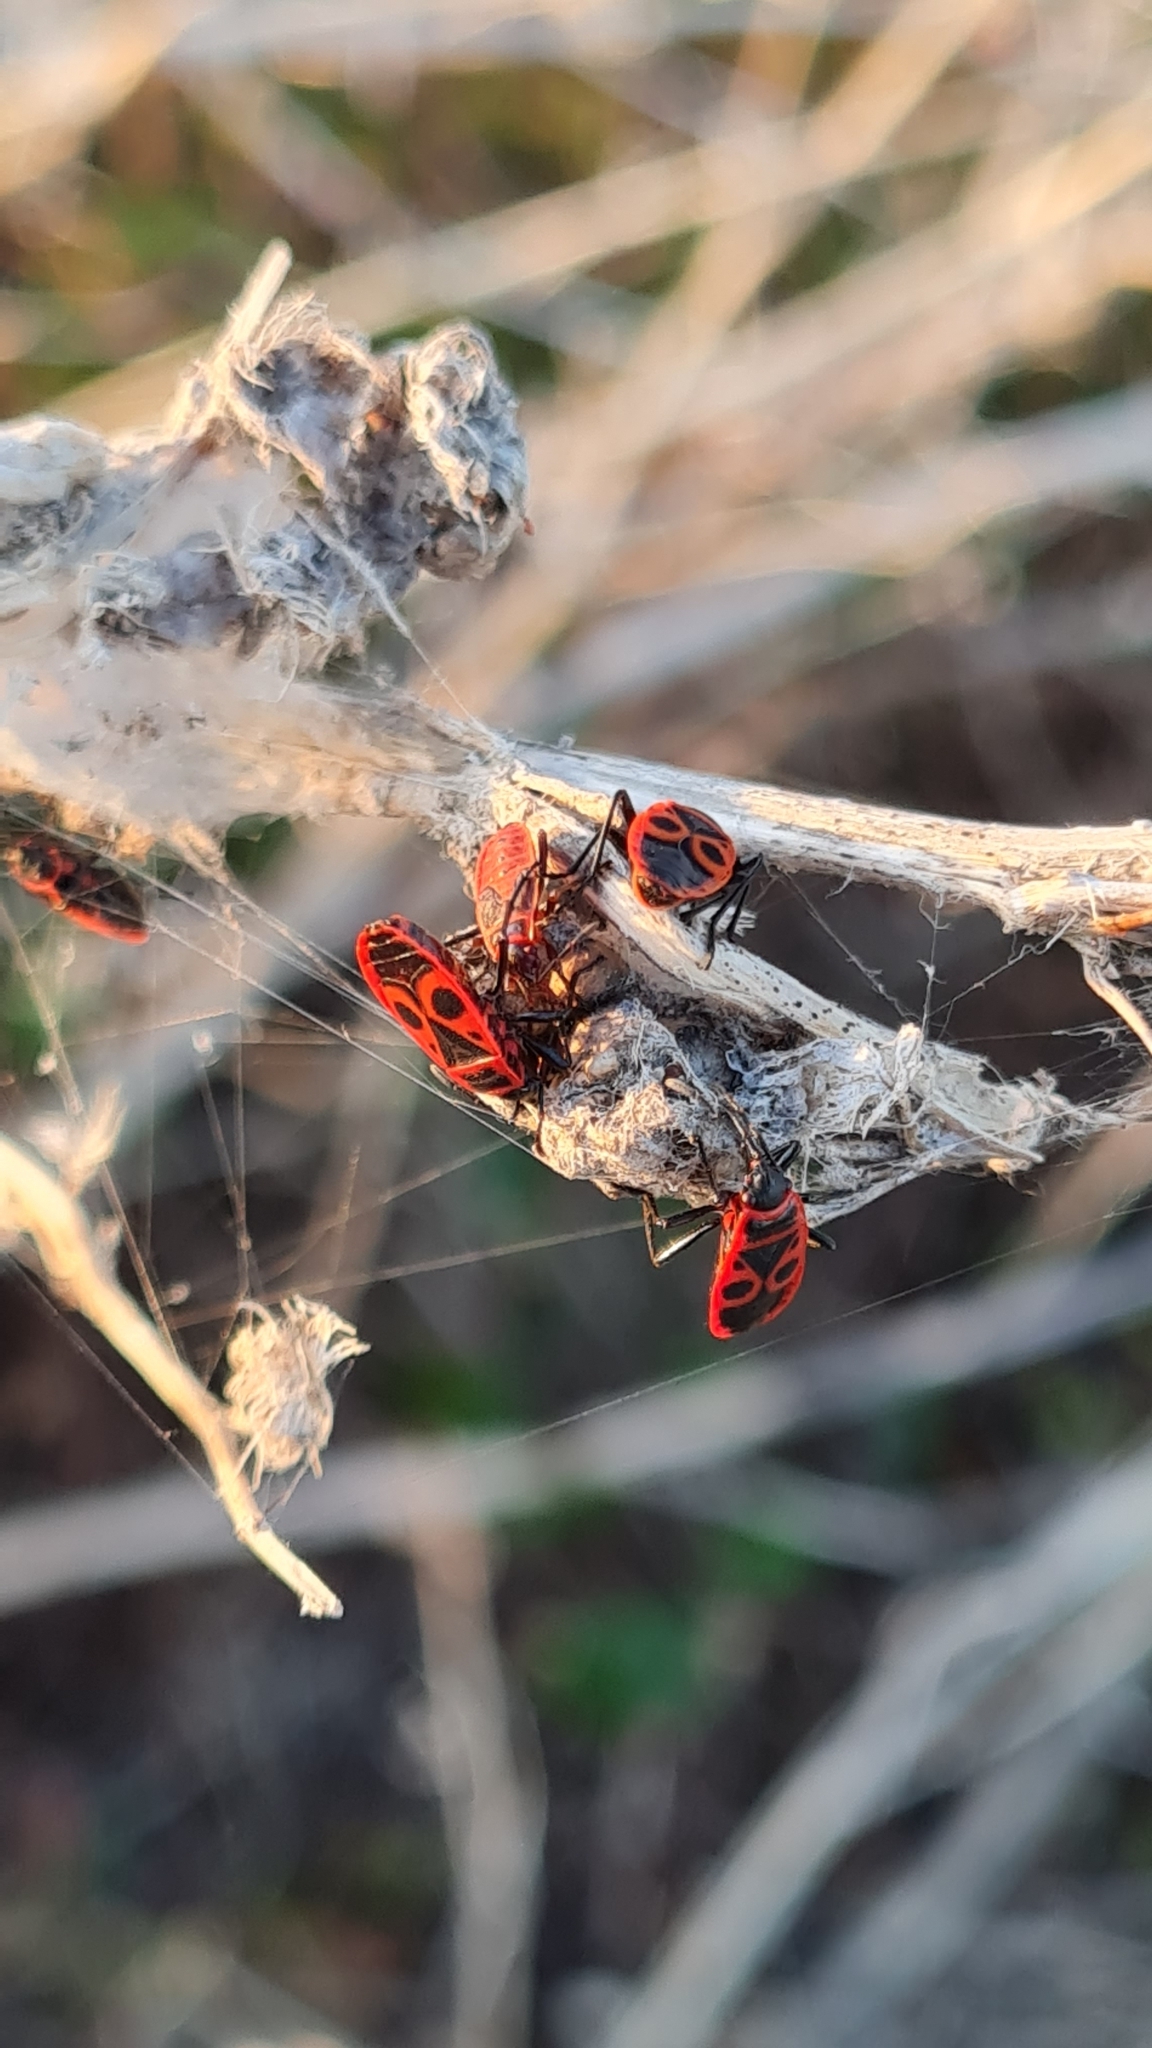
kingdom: Animalia
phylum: Arthropoda
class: Insecta
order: Hemiptera
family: Pyrrhocoridae
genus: Pyrrhocoris
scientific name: Pyrrhocoris apterus
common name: Firebug
